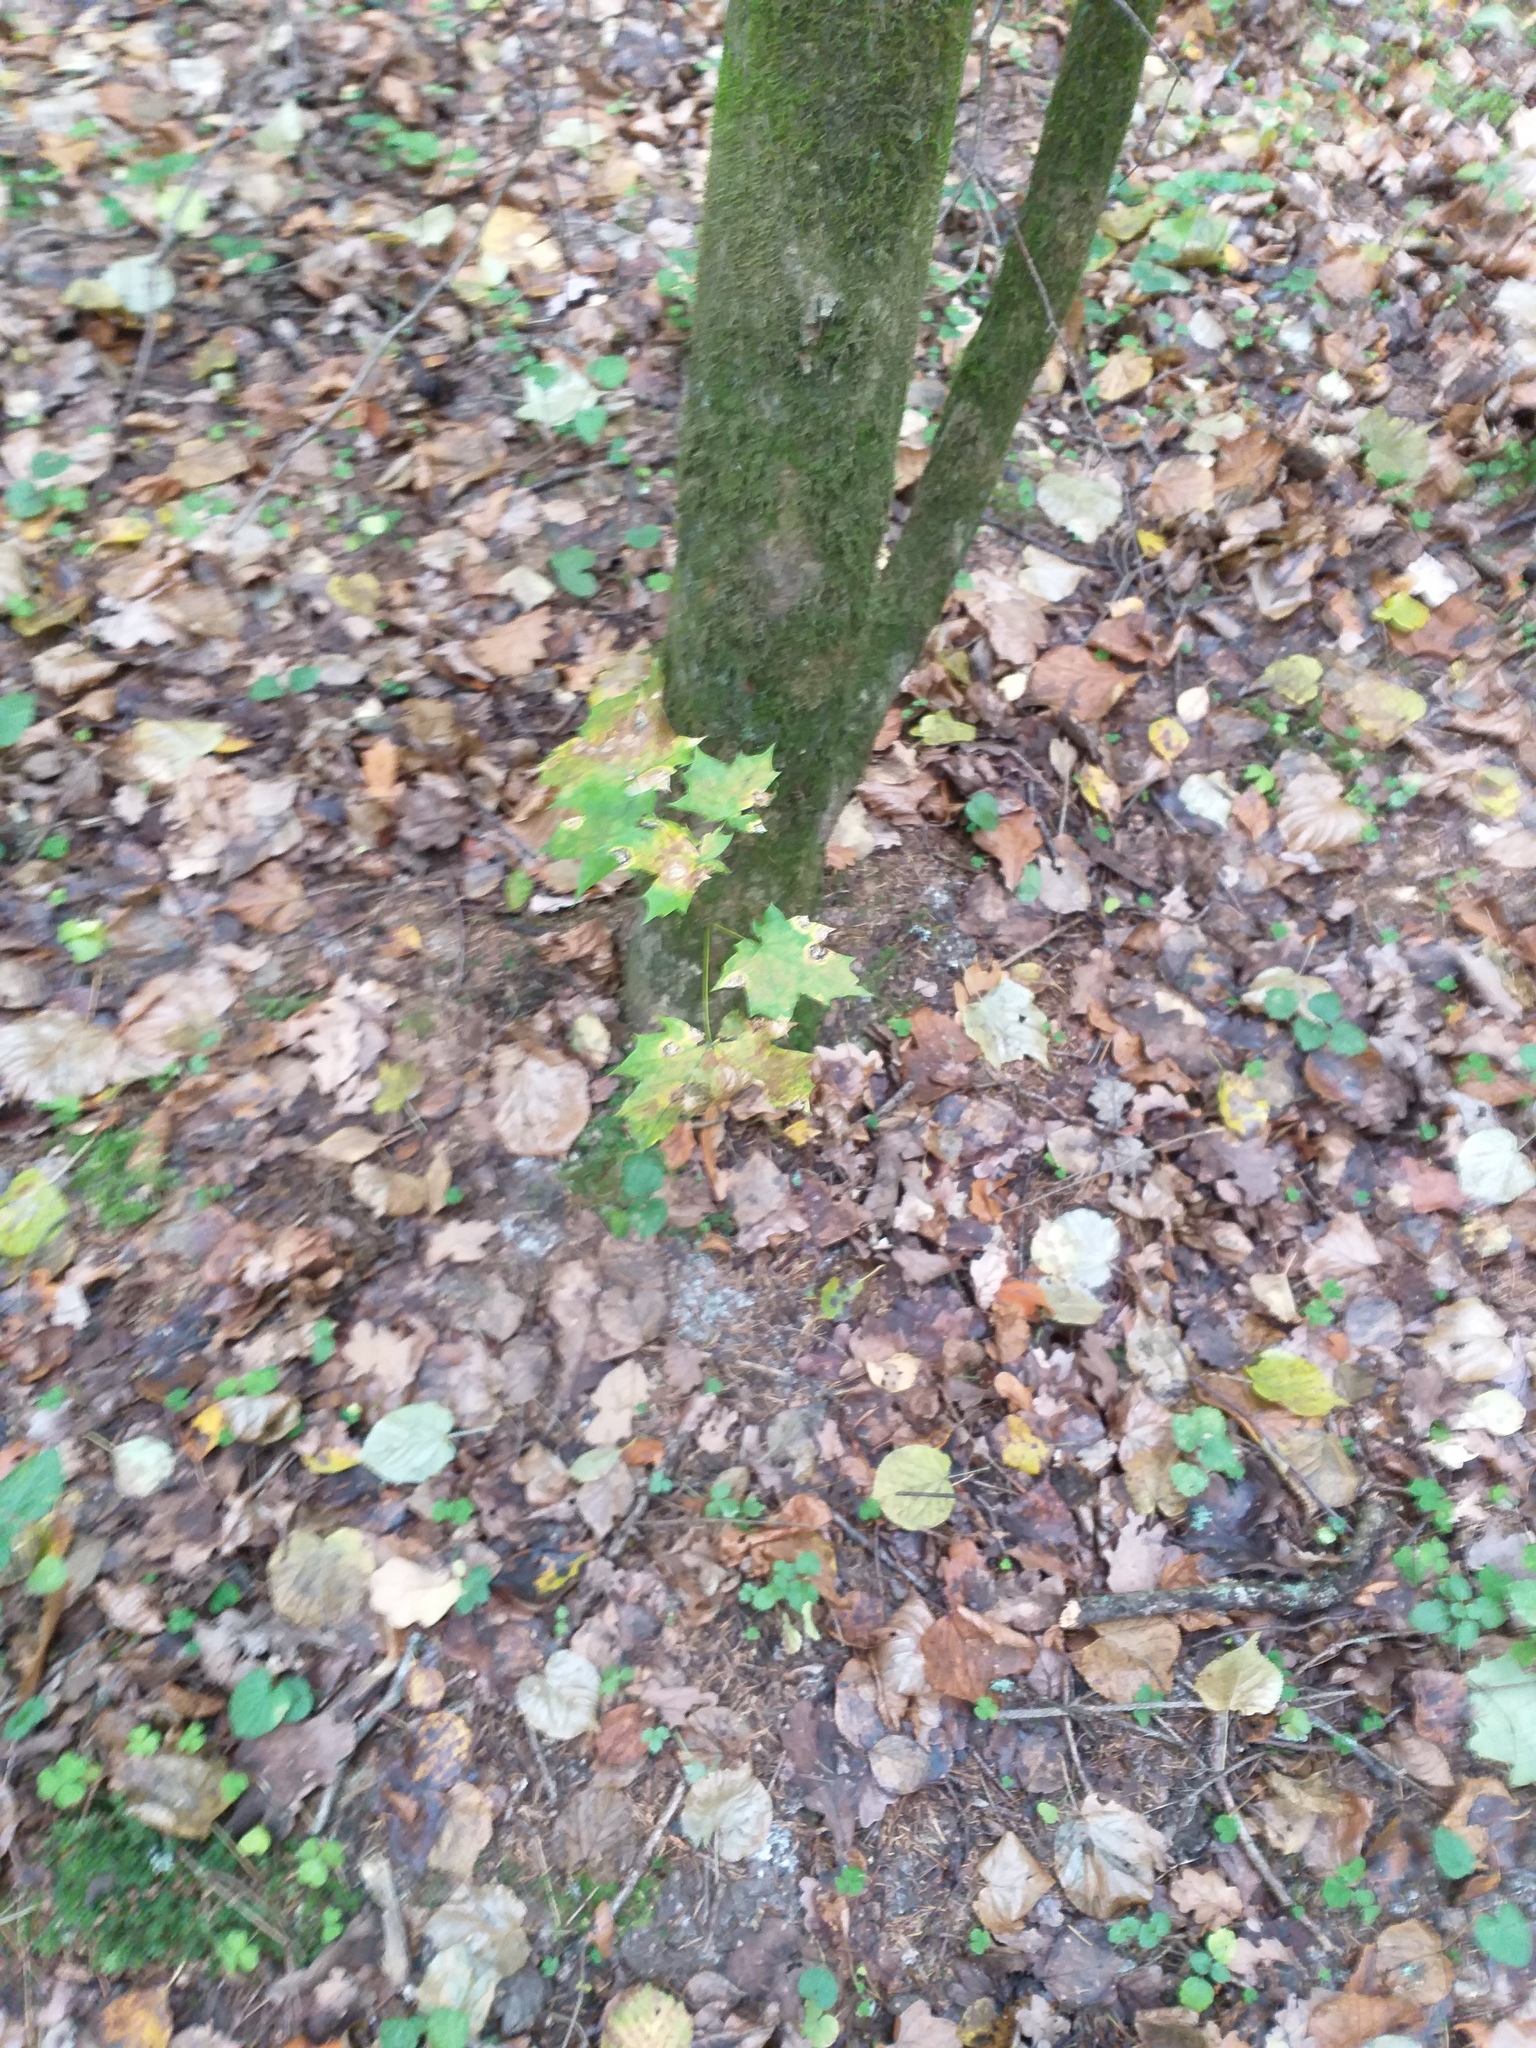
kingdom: Plantae
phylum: Tracheophyta
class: Magnoliopsida
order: Sapindales
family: Sapindaceae
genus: Acer
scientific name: Acer platanoides
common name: Norway maple
